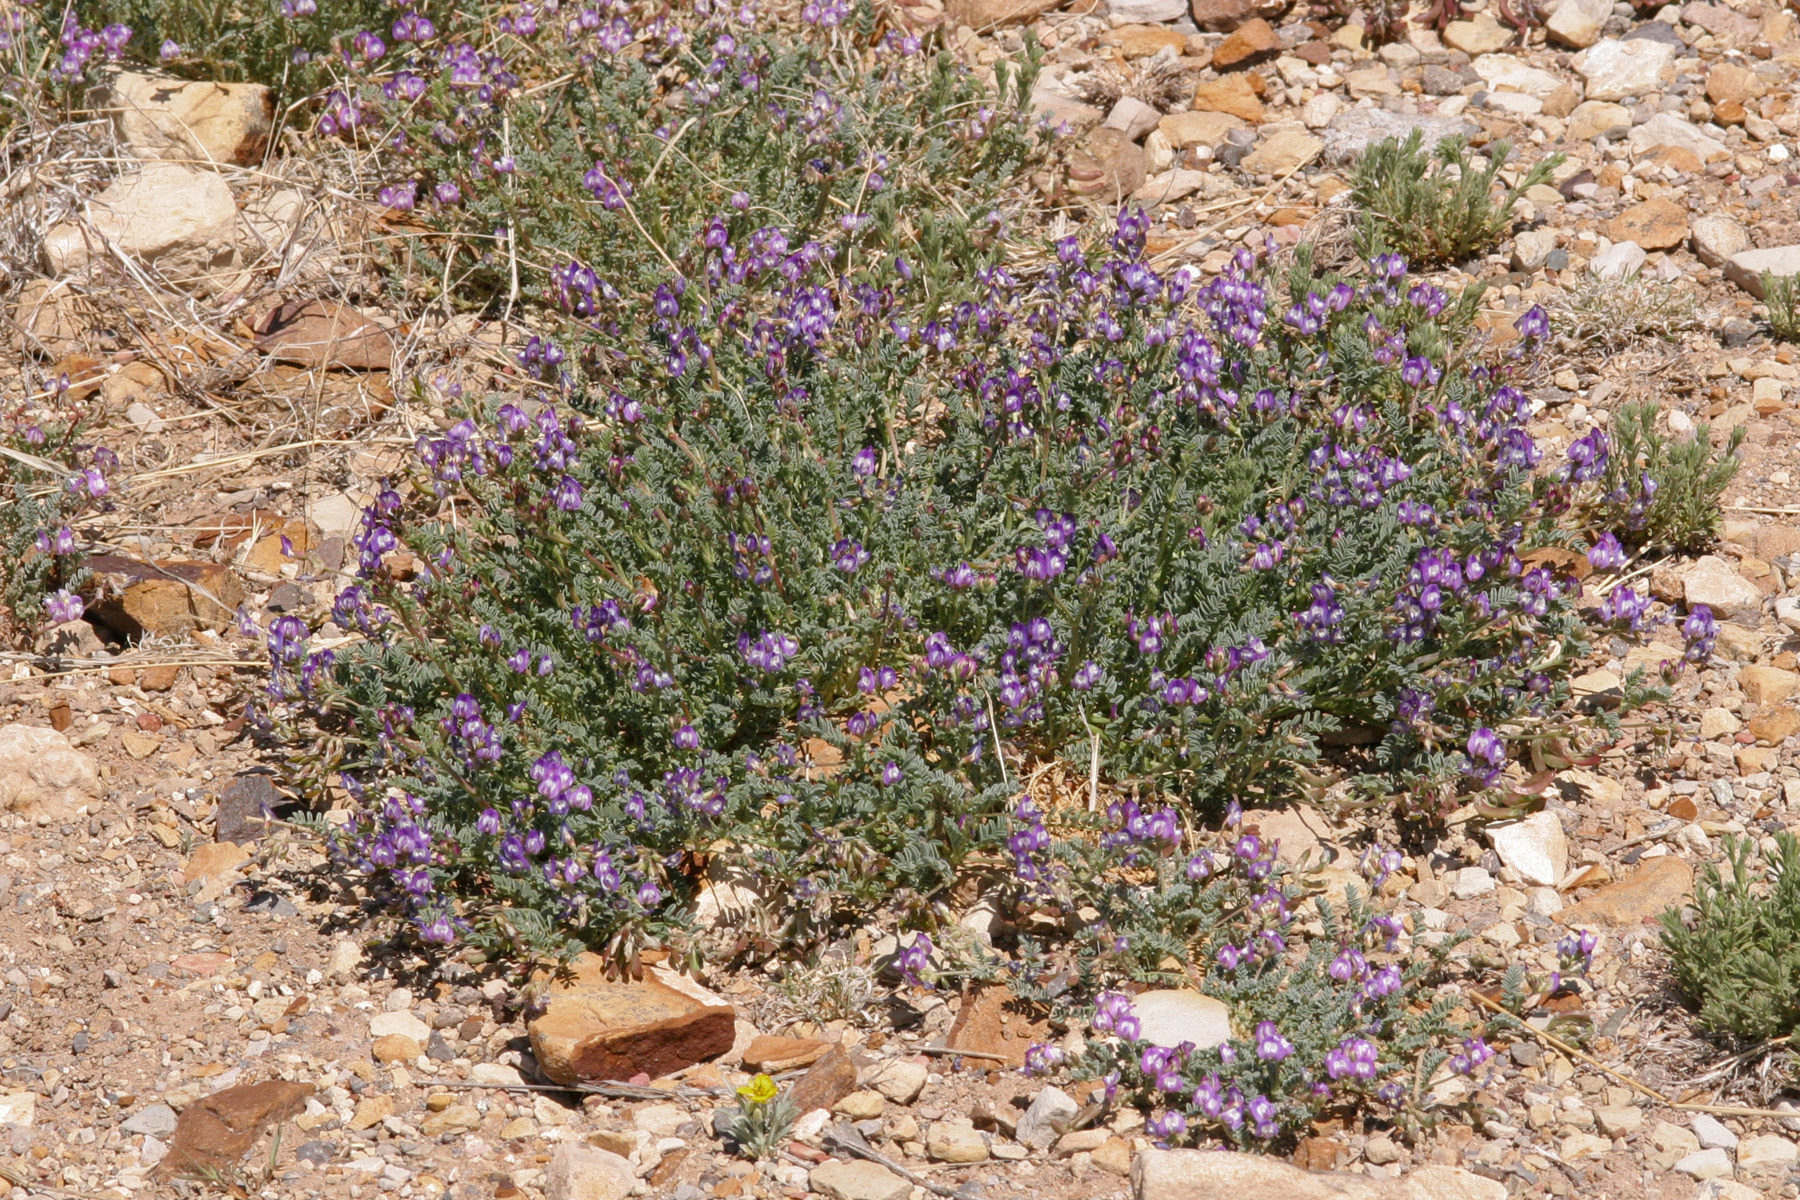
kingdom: Plantae
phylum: Tracheophyta
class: Magnoliopsida
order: Fabales
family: Fabaceae
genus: Astragalus
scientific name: Astragalus emoryanus
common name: Emory's milk-vetch
